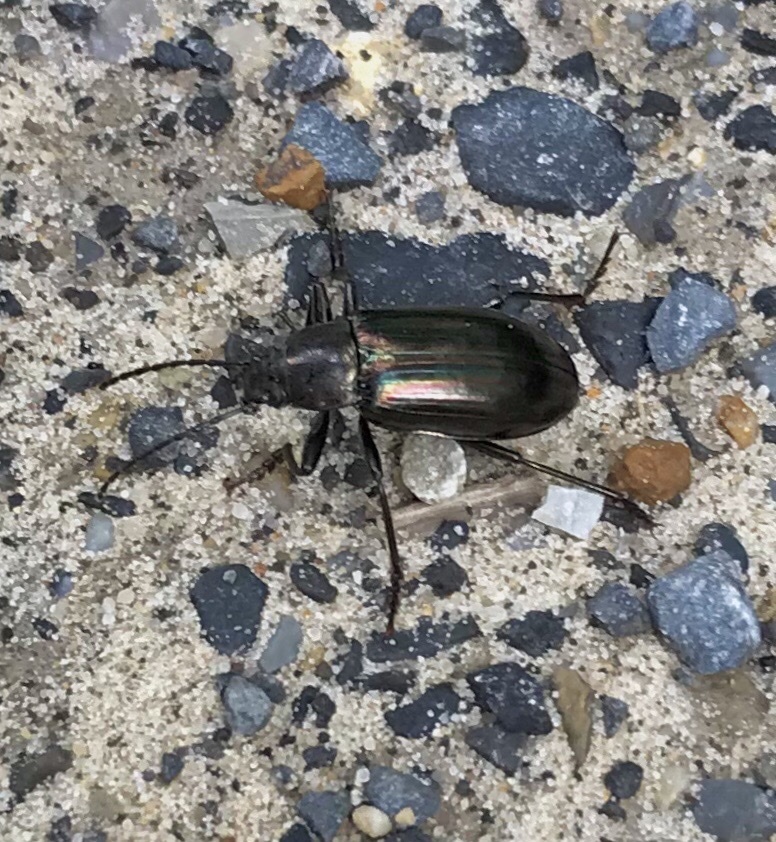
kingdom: Animalia
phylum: Arthropoda
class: Insecta
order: Coleoptera
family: Tenebrionidae
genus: Tarpela
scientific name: Tarpela micans
